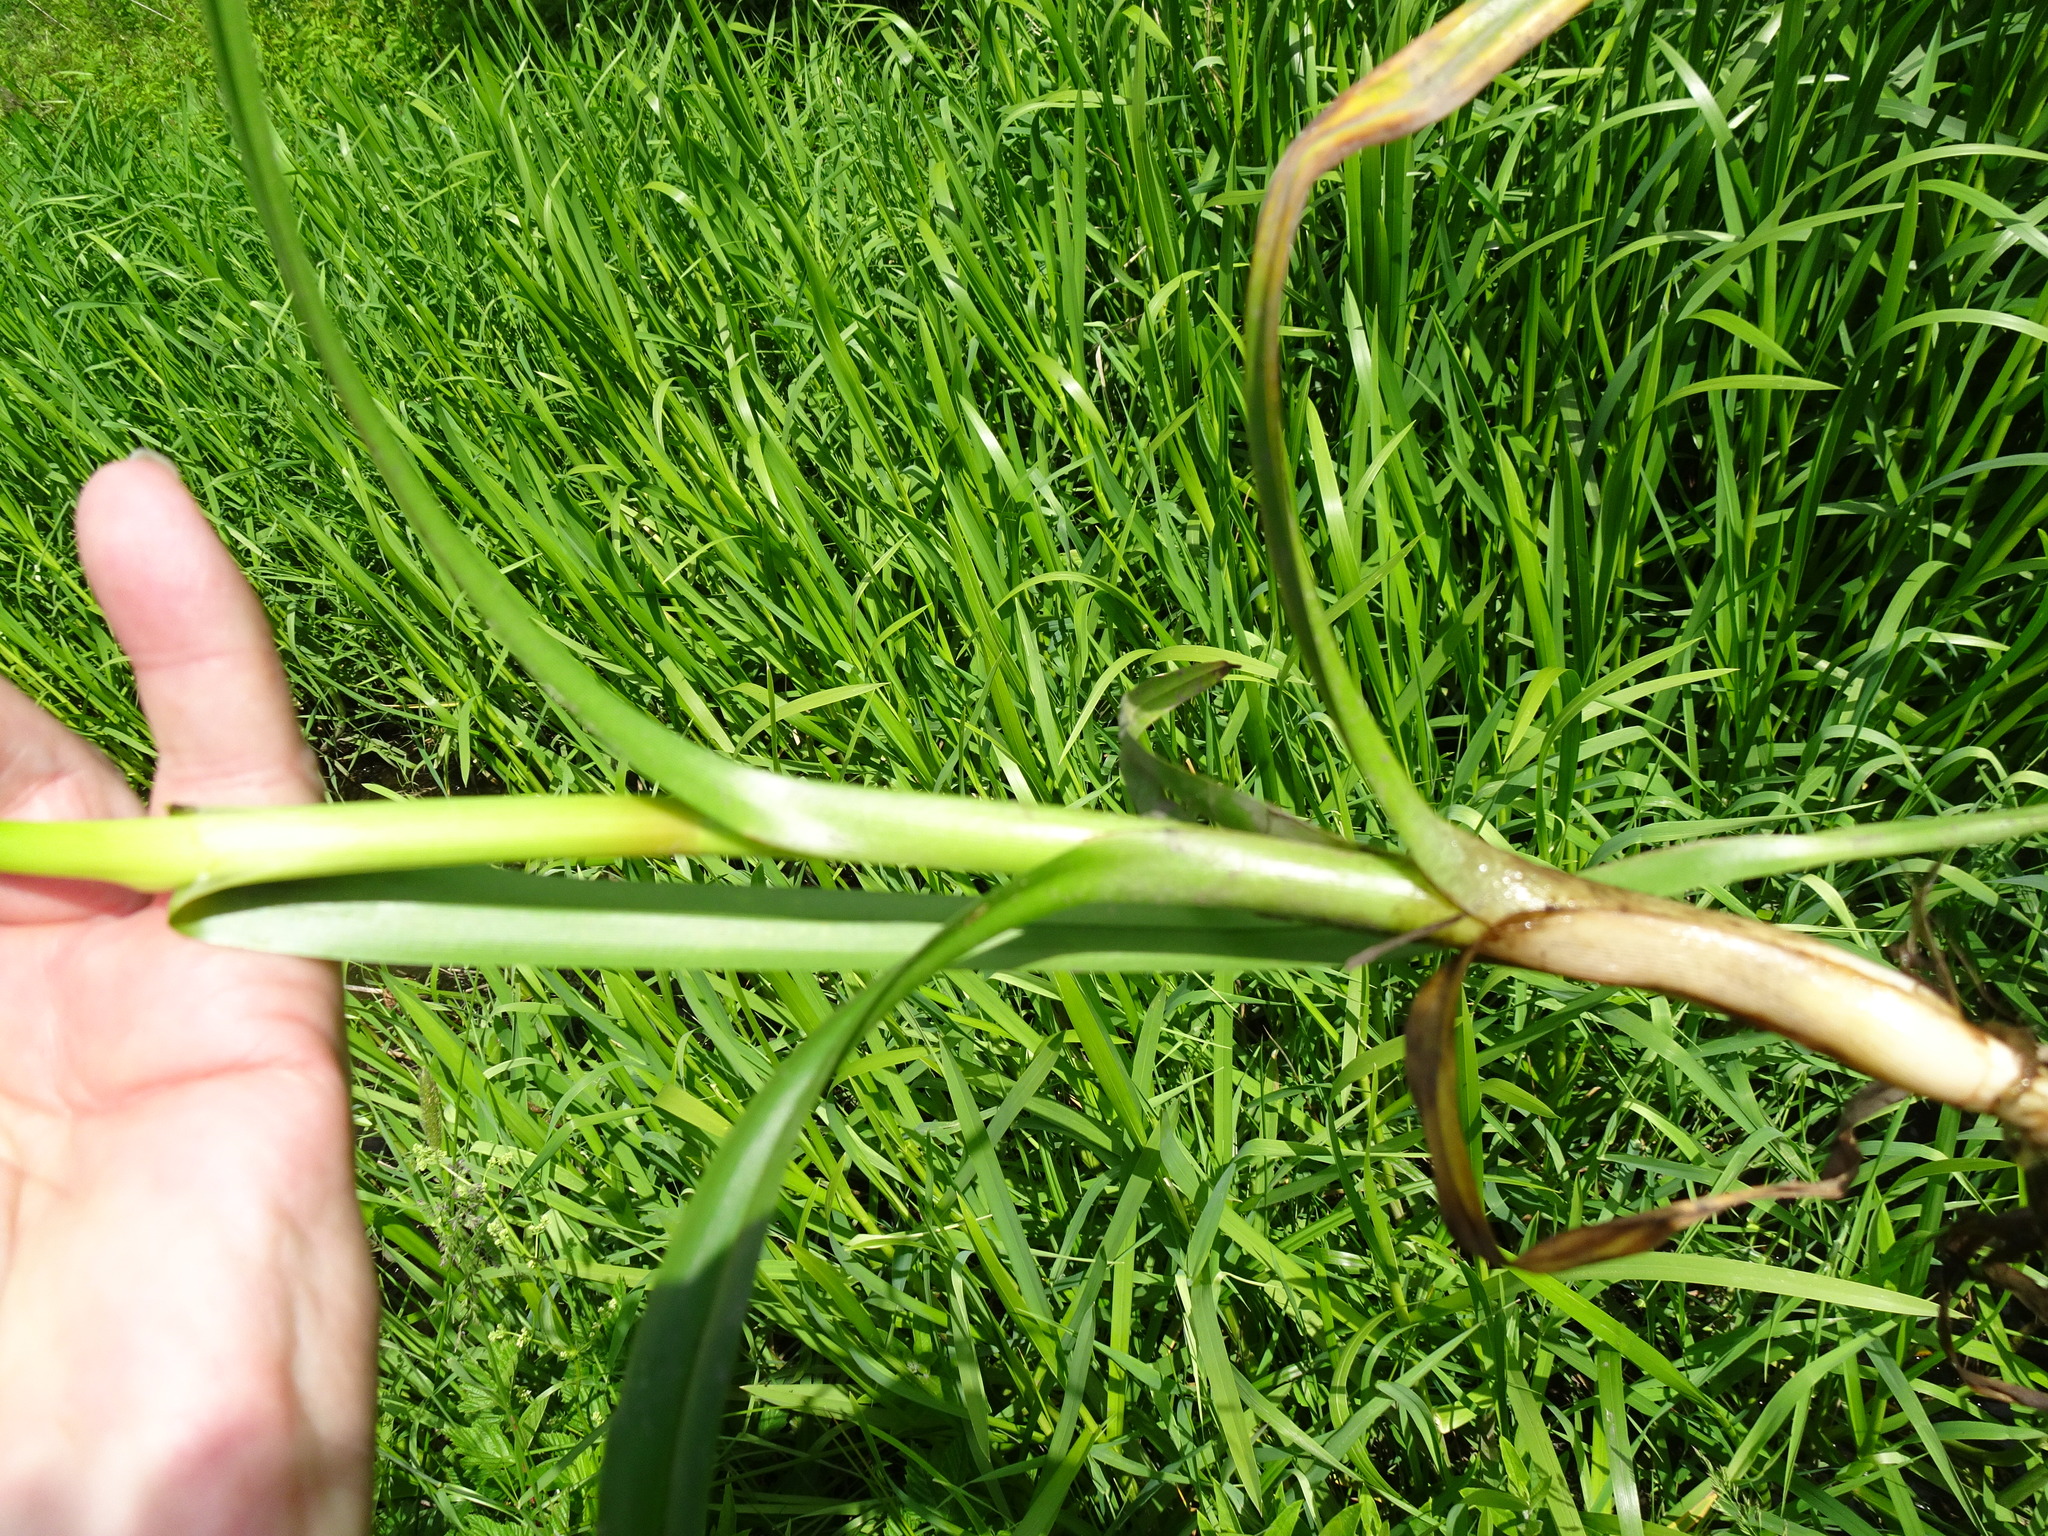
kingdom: Plantae
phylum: Tracheophyta
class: Liliopsida
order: Poales
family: Cyperaceae
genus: Scirpus
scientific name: Scirpus sylvaticus
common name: Wood club-rush
